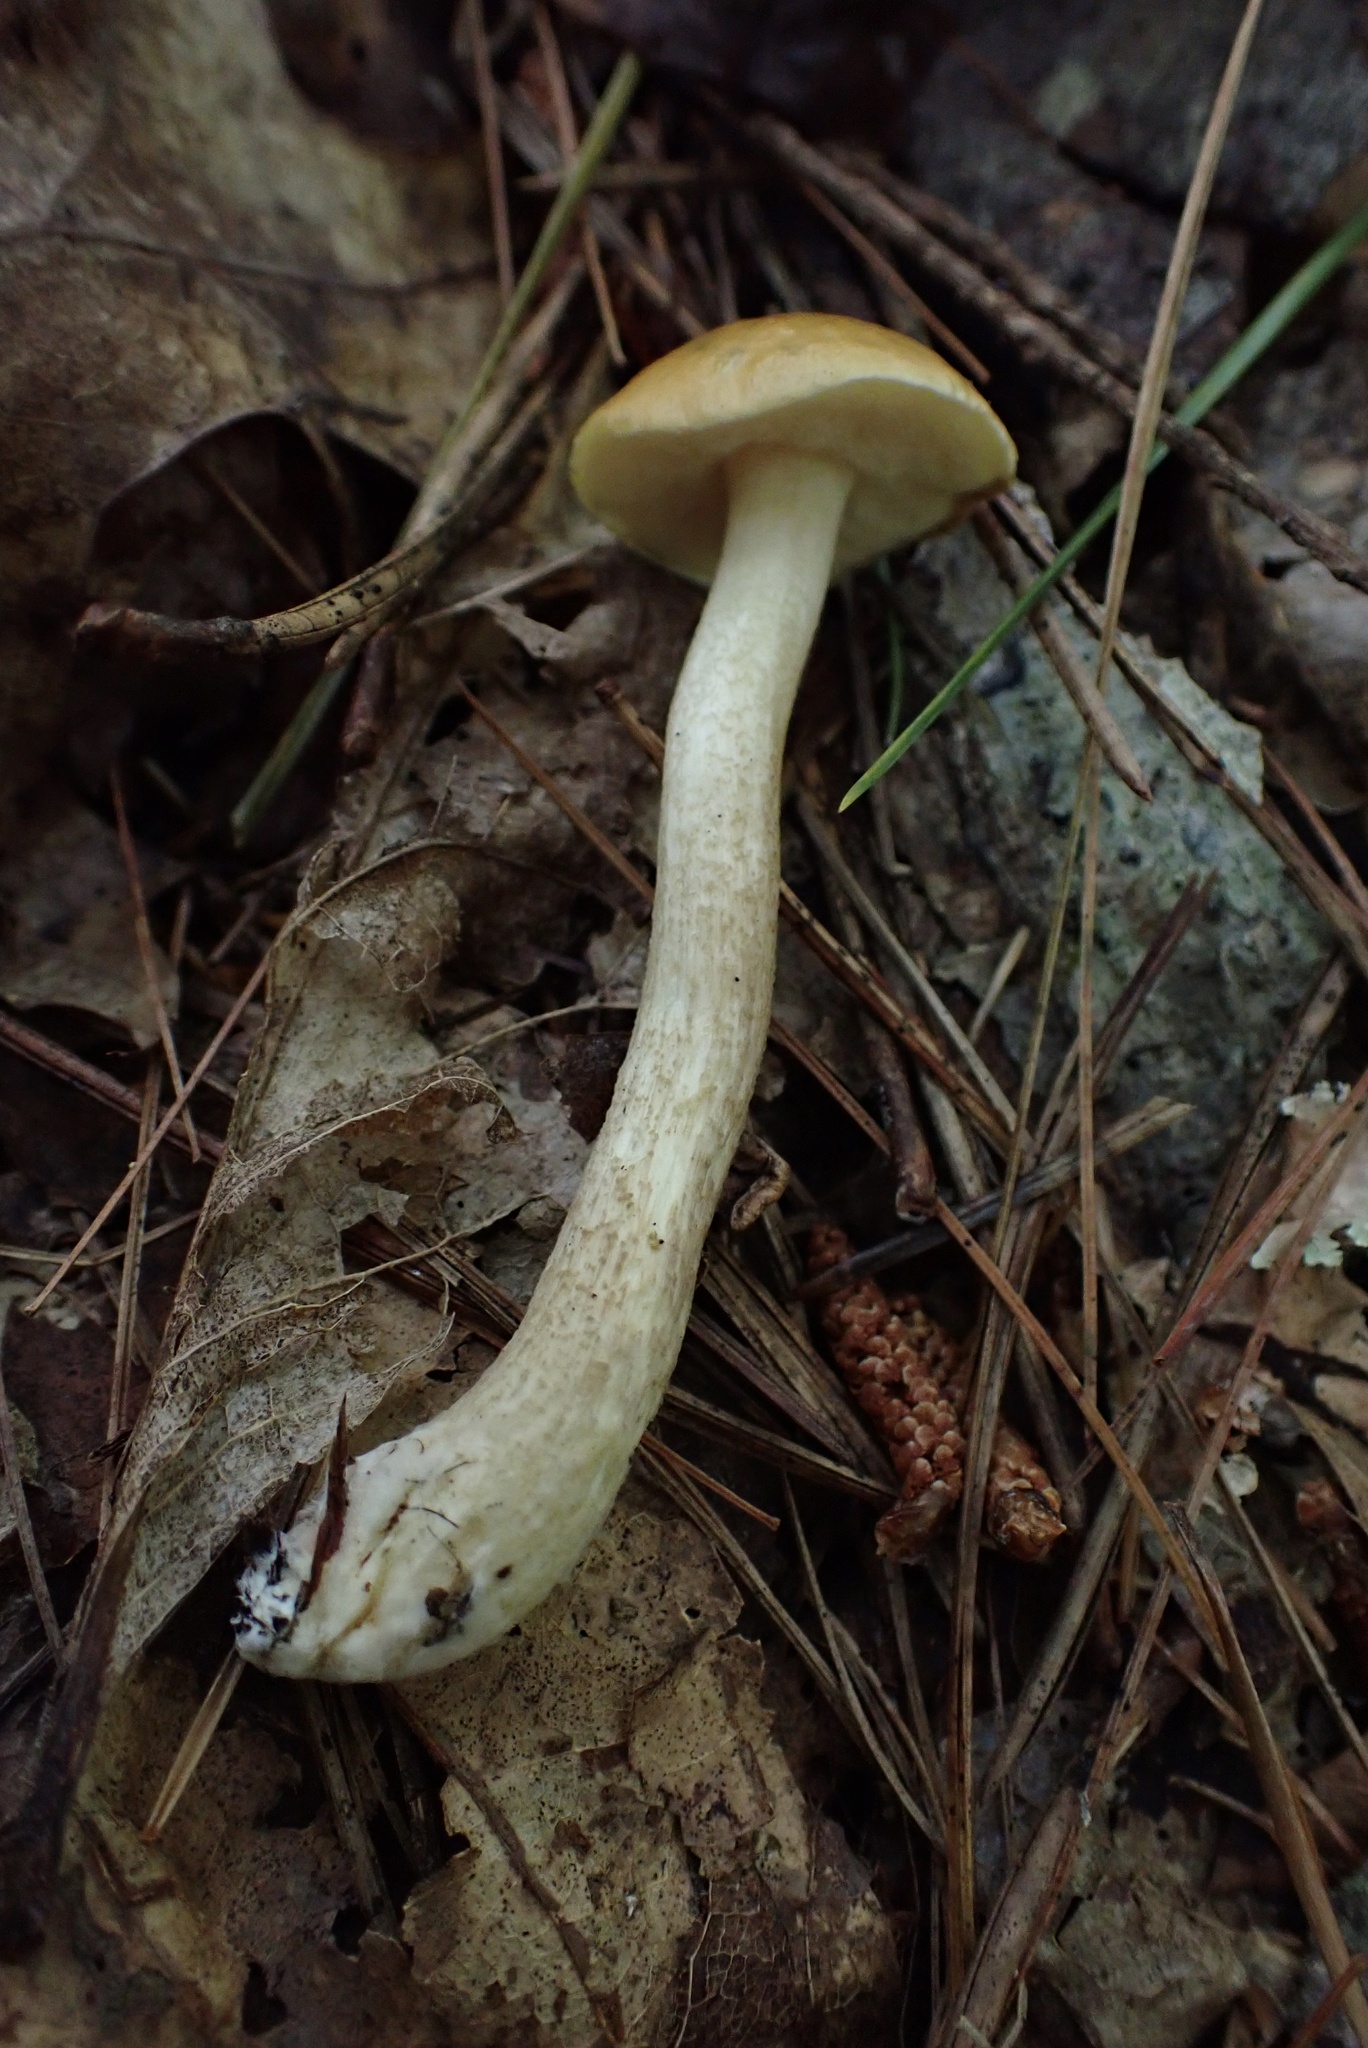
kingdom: Fungi
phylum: Basidiomycota
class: Agaricomycetes
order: Boletales
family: Boletaceae
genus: Leccinum
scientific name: Leccinum longicurvipes
